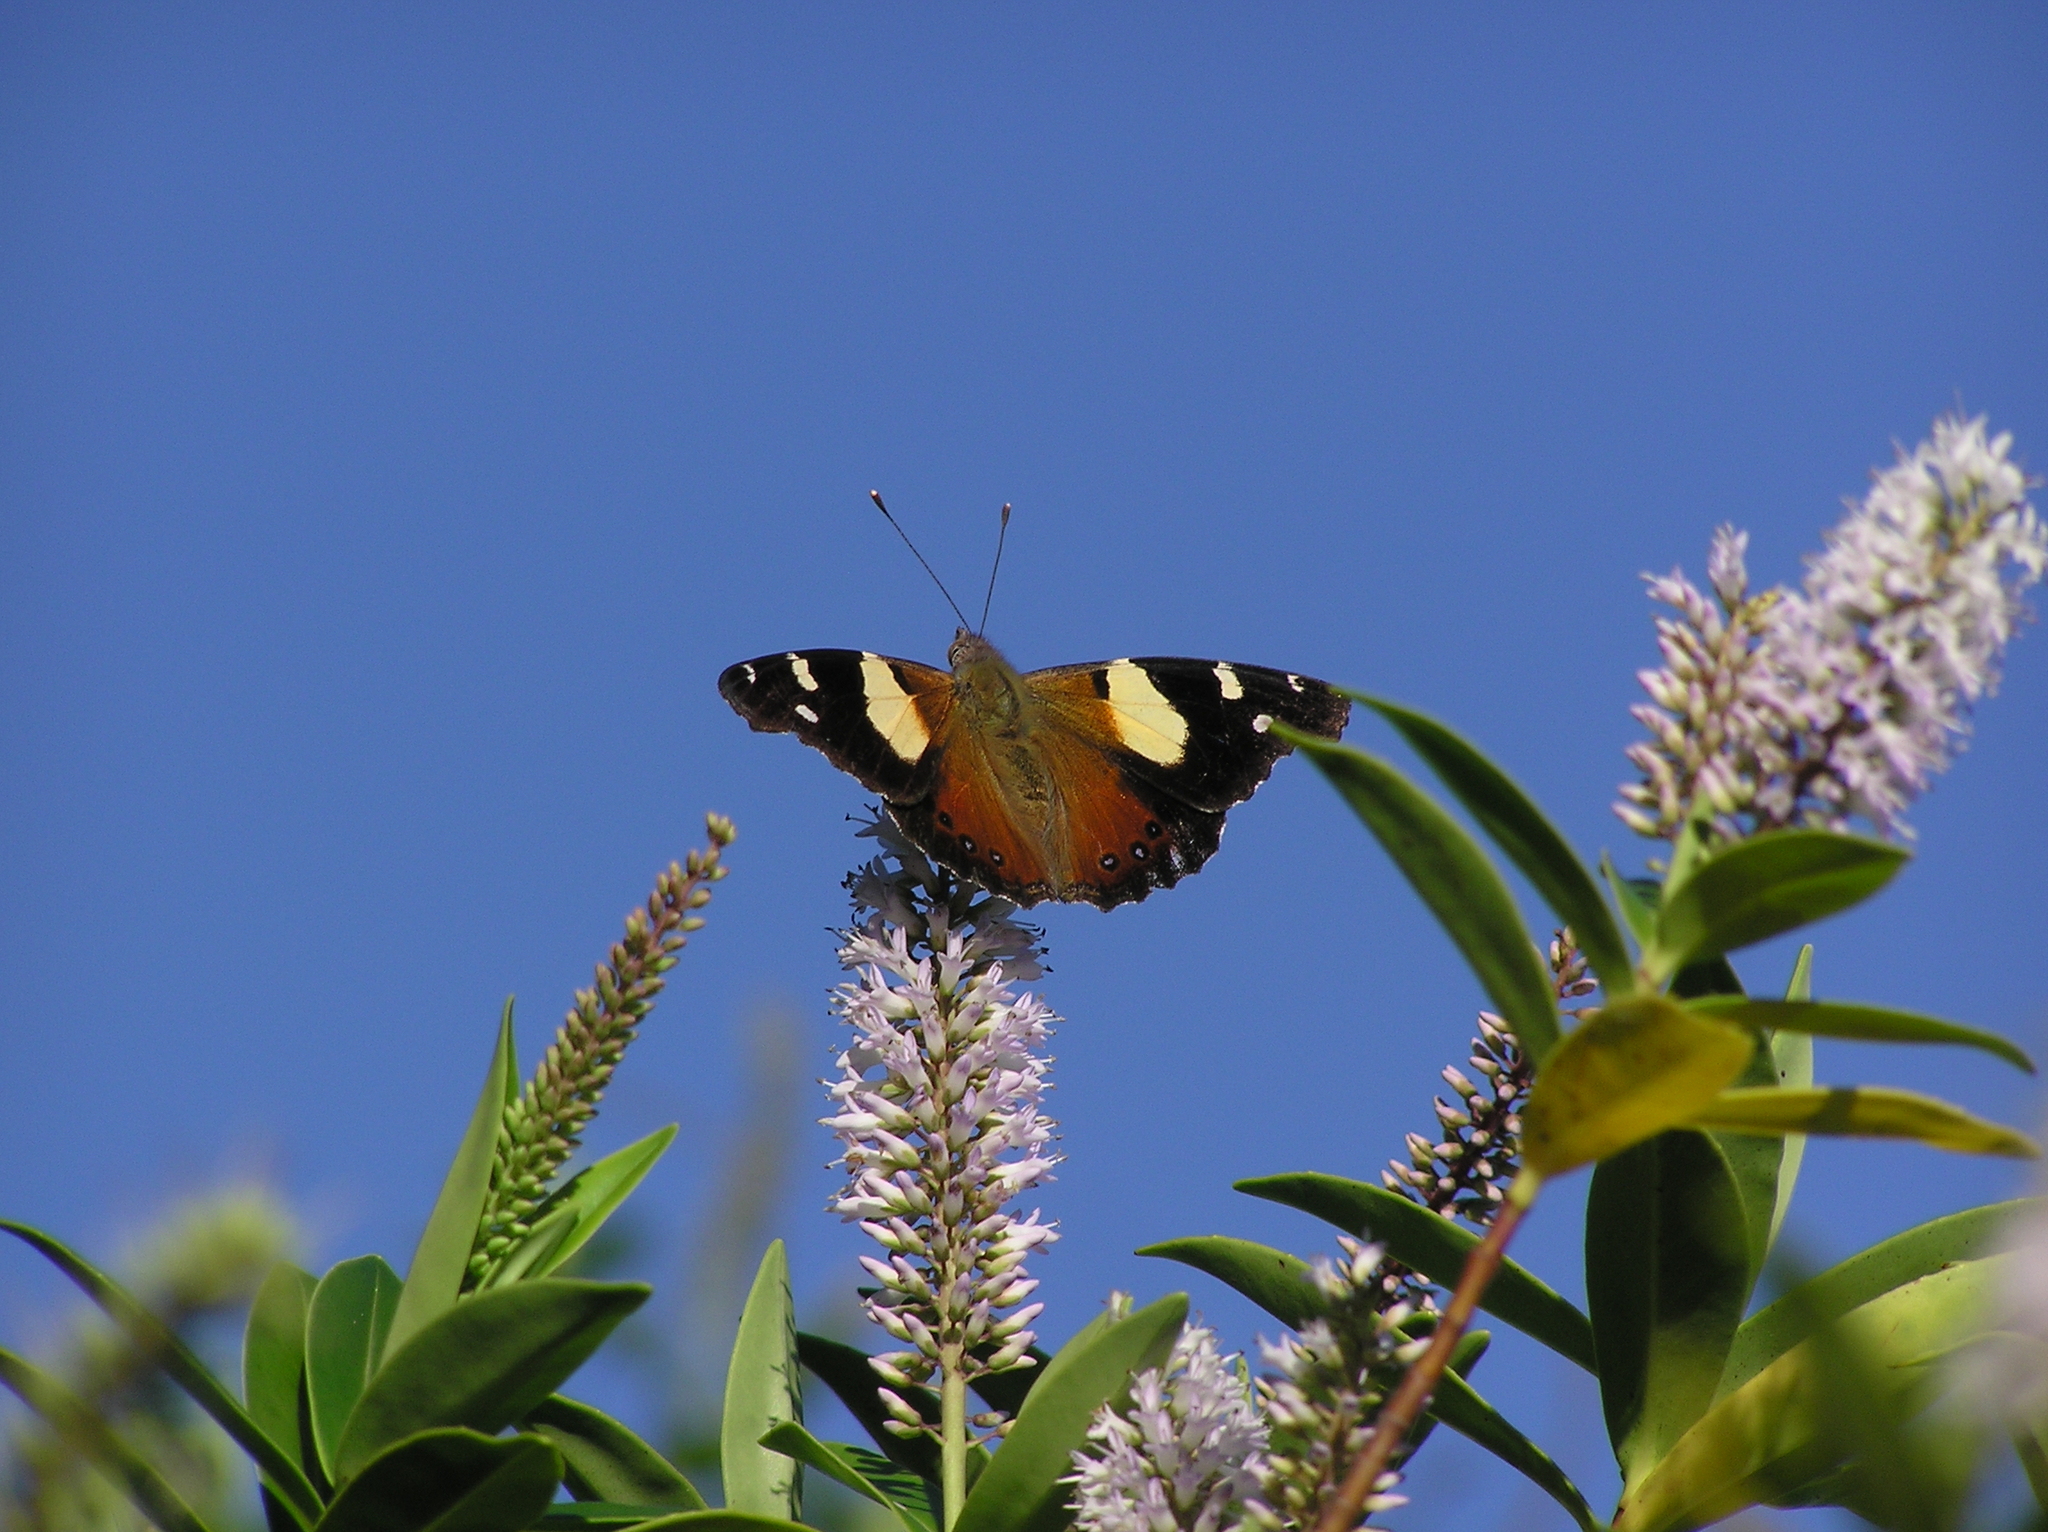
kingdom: Animalia
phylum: Arthropoda
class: Insecta
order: Lepidoptera
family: Nymphalidae
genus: Vanessa
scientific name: Vanessa itea
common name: Yellow admiral
